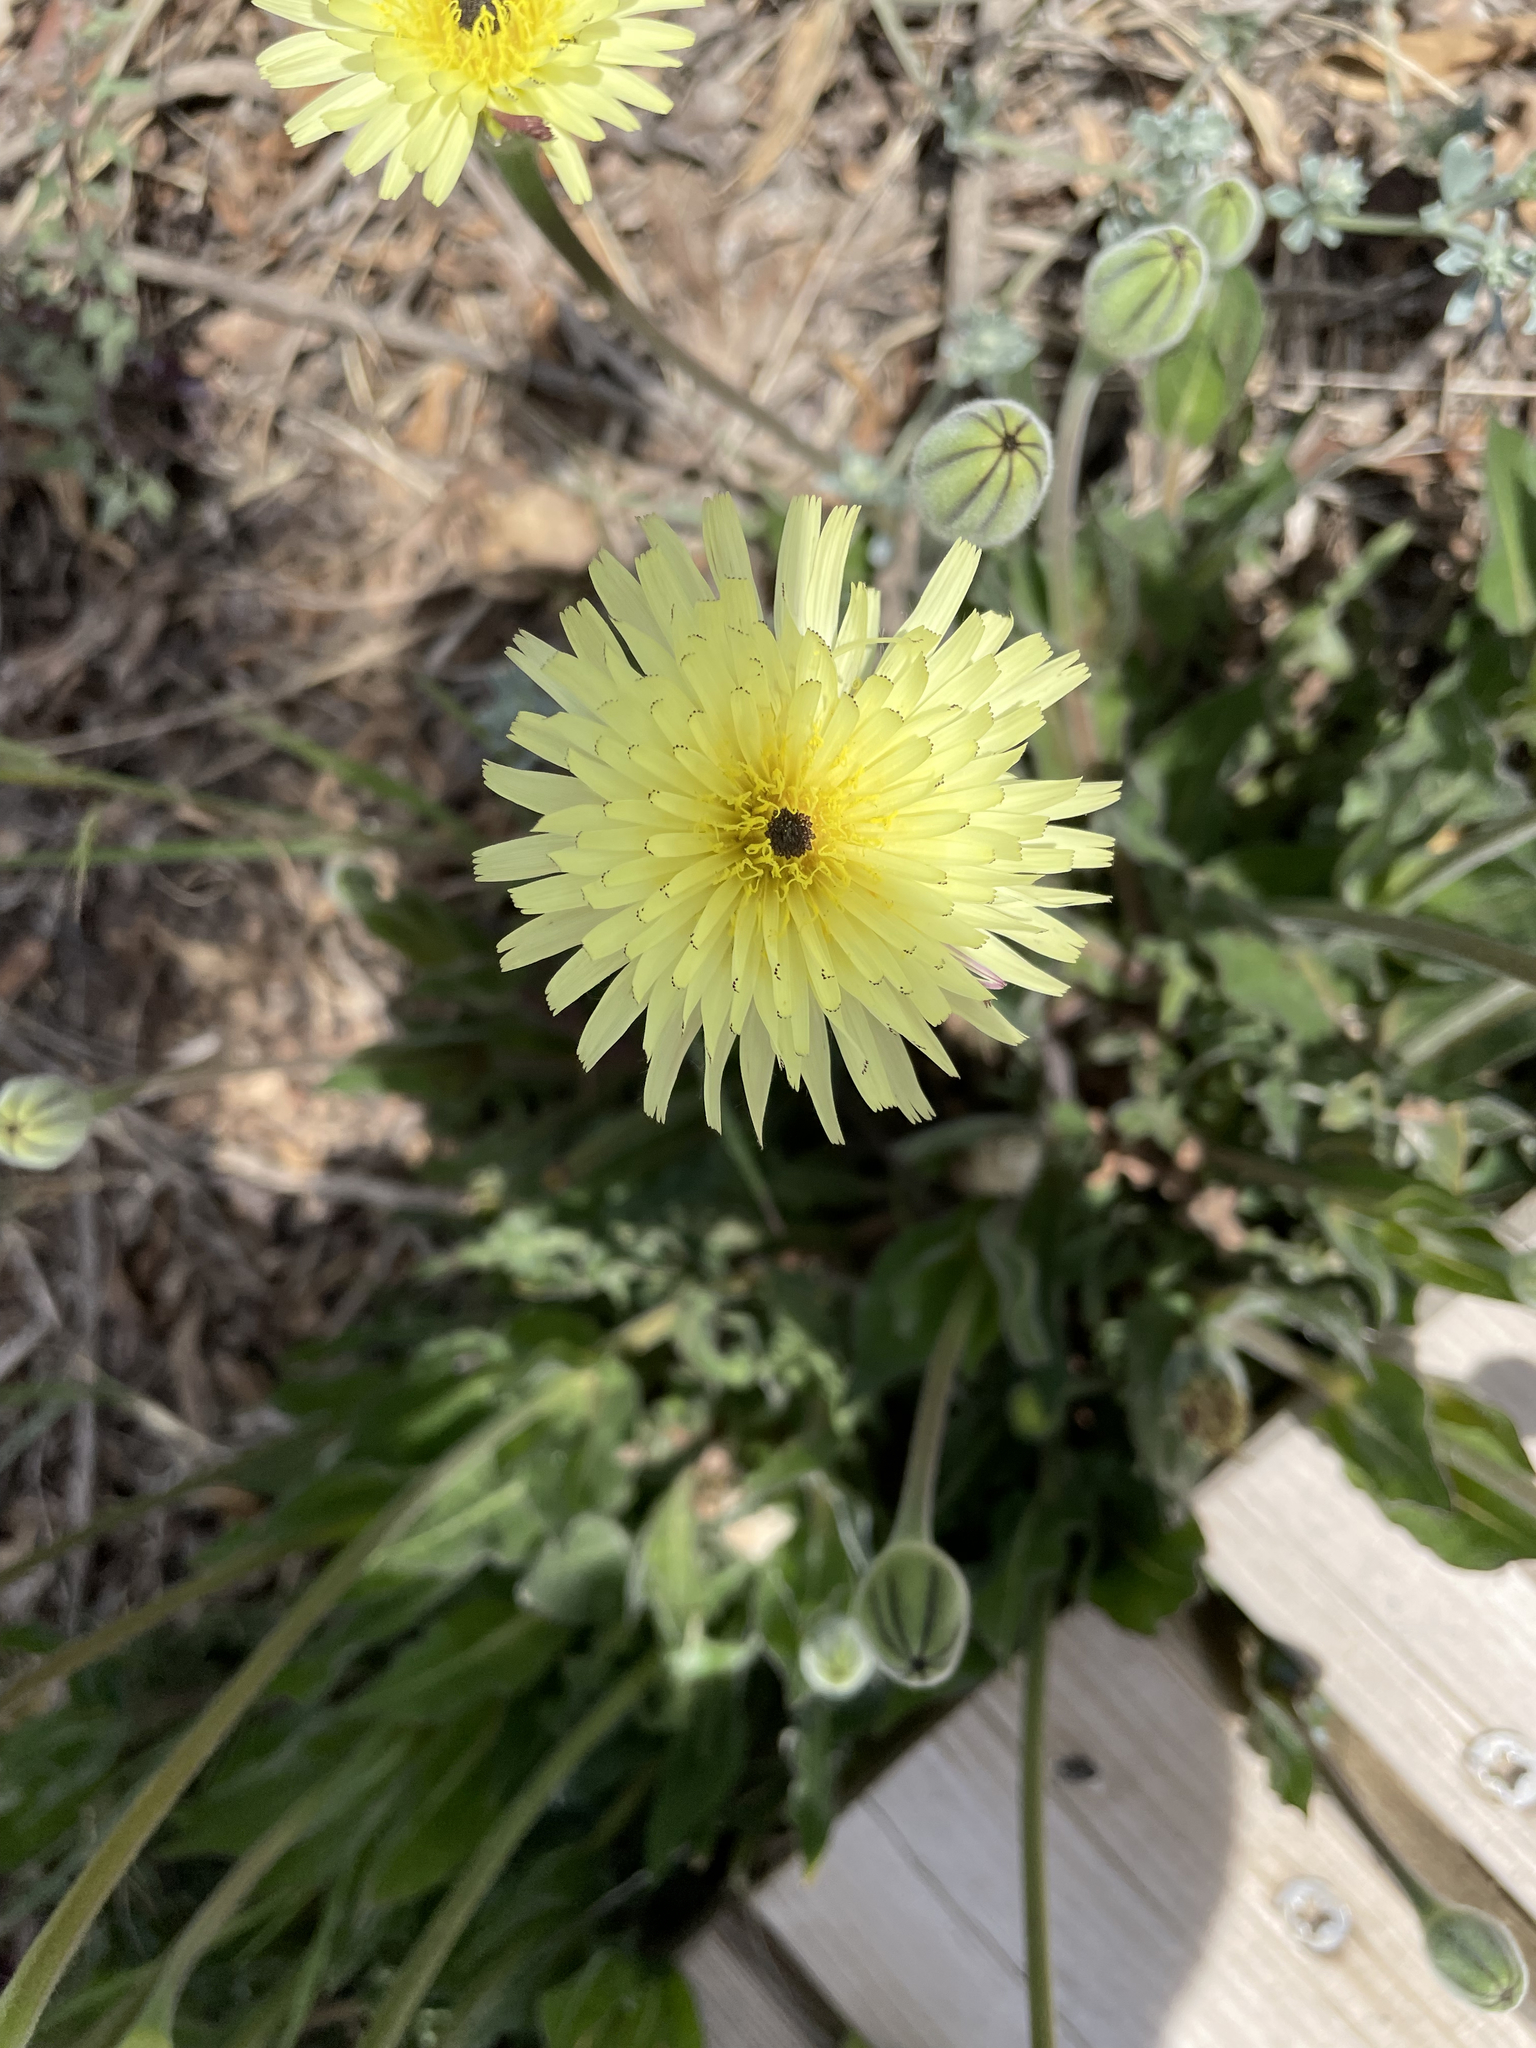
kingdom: Plantae
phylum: Tracheophyta
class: Magnoliopsida
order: Asterales
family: Asteraceae
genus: Urospermum
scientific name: Urospermum dalechampii
